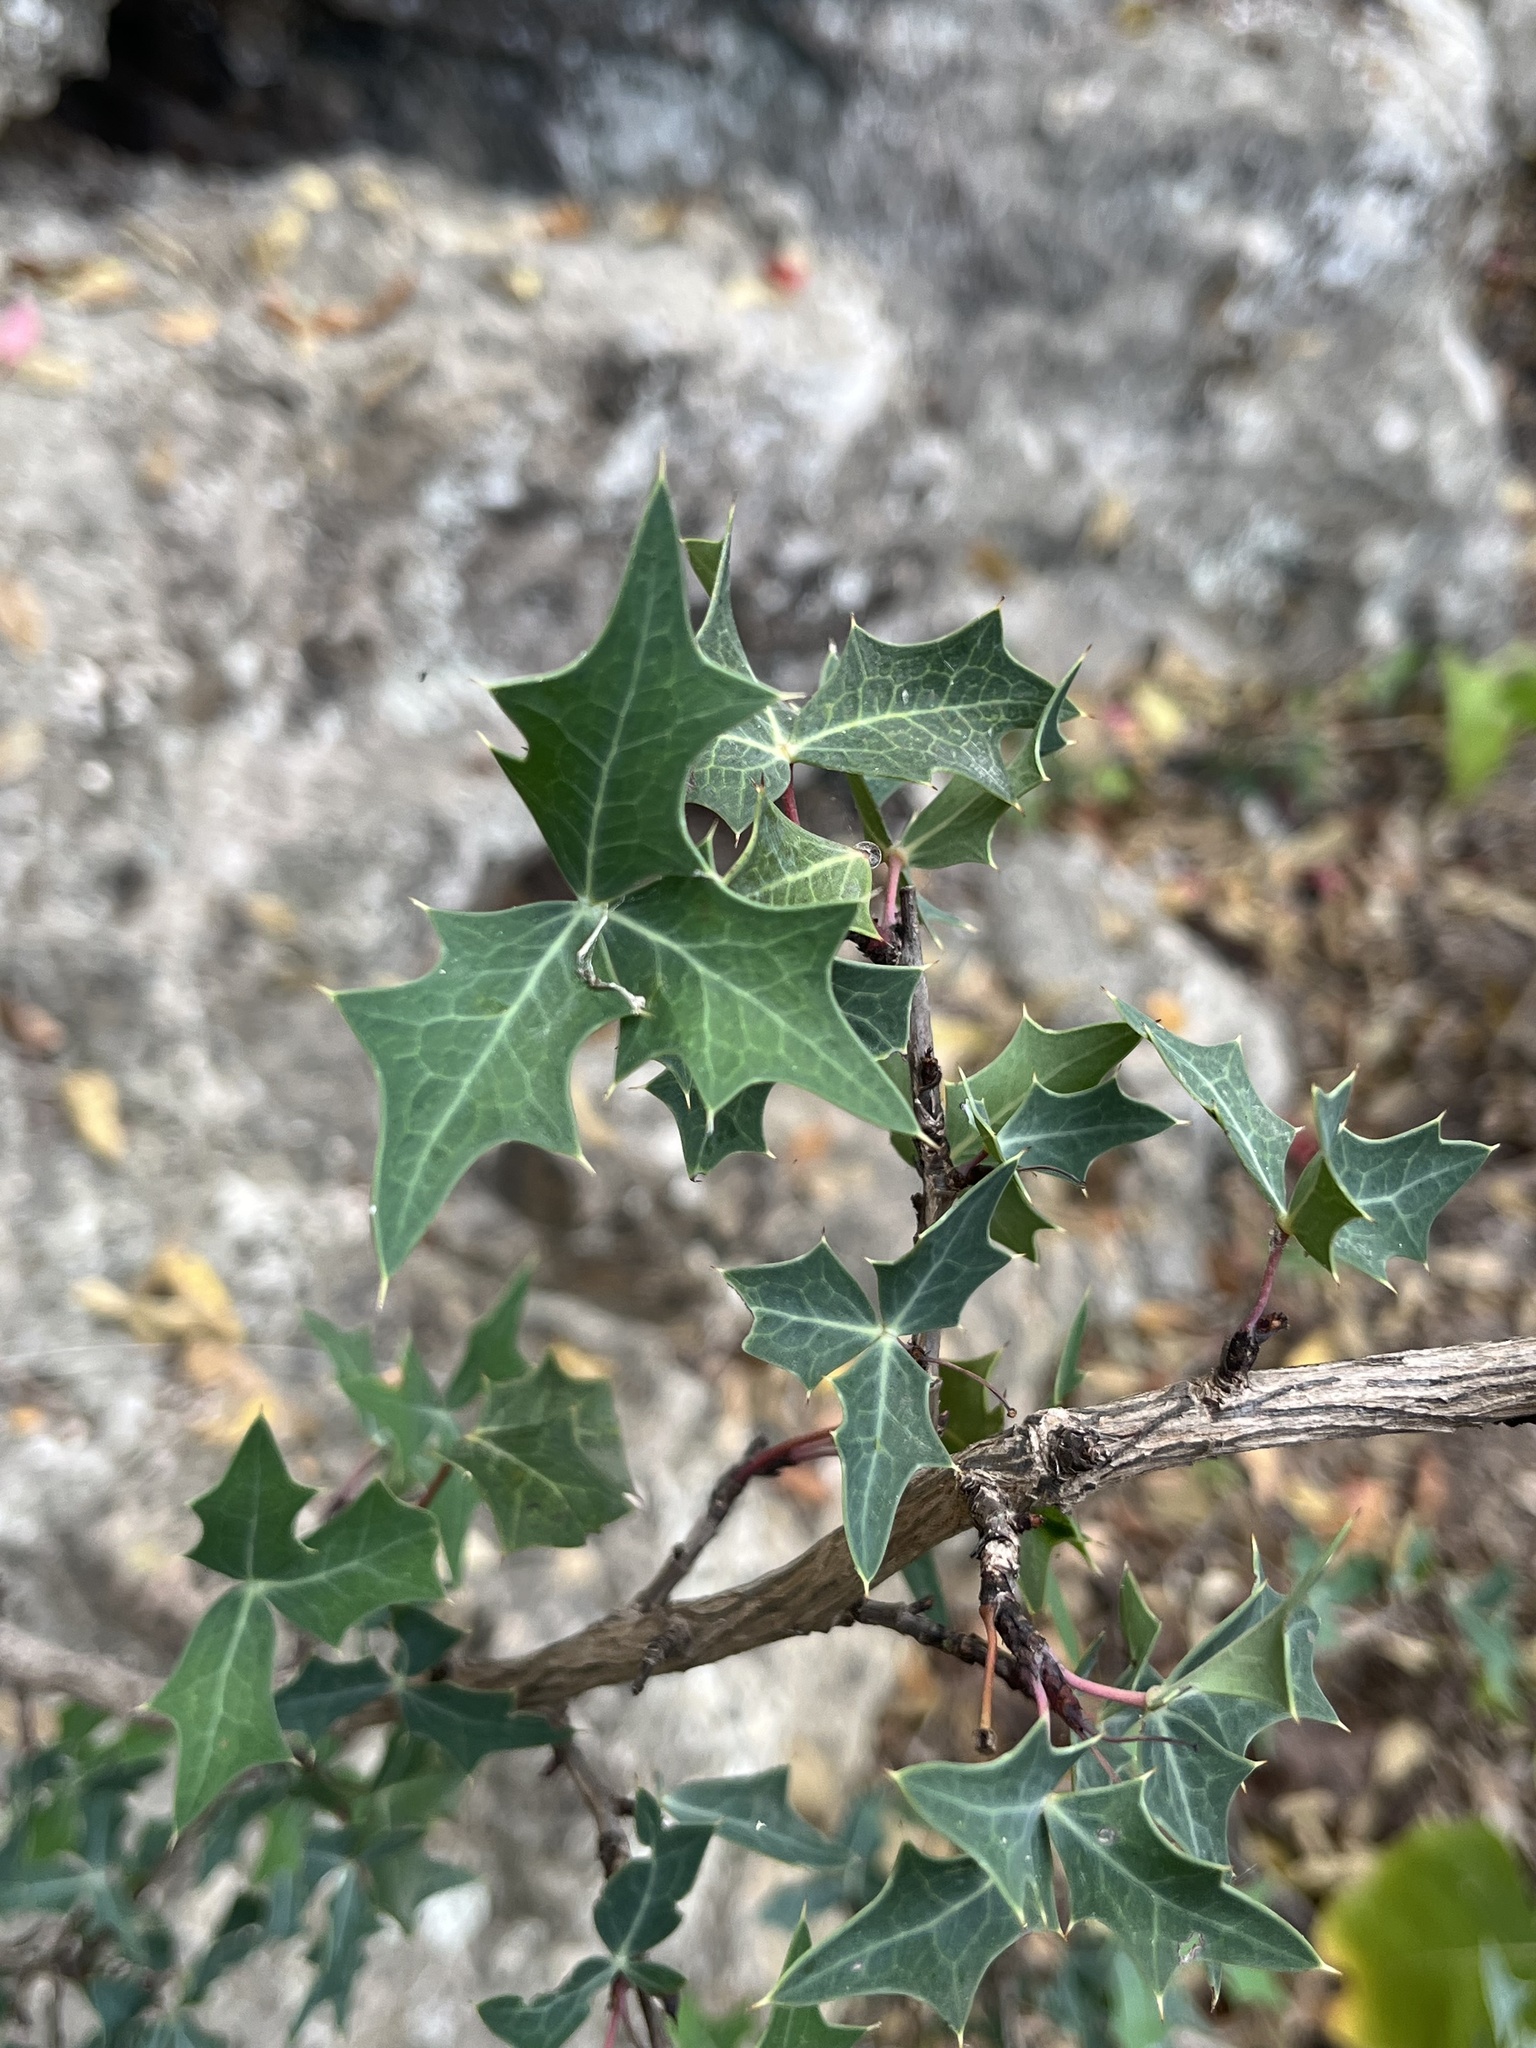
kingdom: Plantae
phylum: Tracheophyta
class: Magnoliopsida
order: Ranunculales
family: Berberidaceae
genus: Alloberberis
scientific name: Alloberberis trifoliolata
